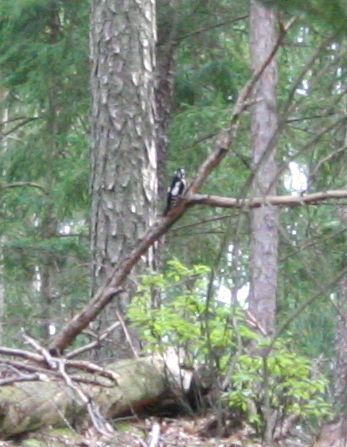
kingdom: Animalia
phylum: Chordata
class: Aves
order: Piciformes
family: Picidae
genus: Dendrocopos
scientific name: Dendrocopos major
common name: Great spotted woodpecker
